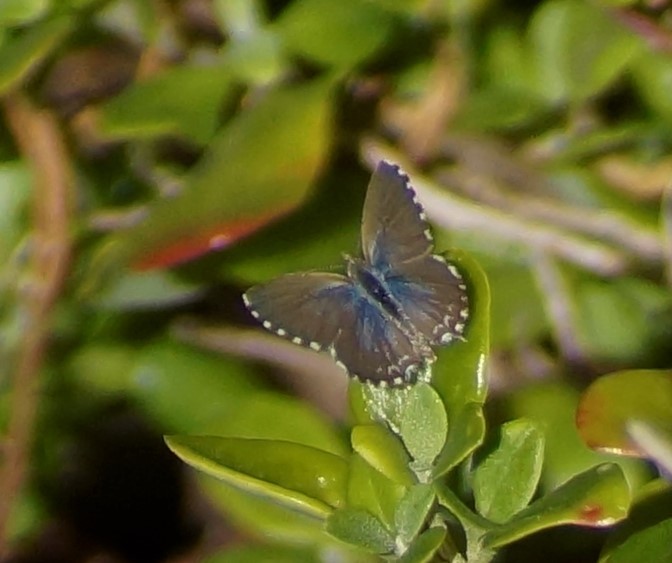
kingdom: Animalia
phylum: Arthropoda
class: Insecta
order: Lepidoptera
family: Lycaenidae
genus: Theclinesthes
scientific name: Theclinesthes serpentata
